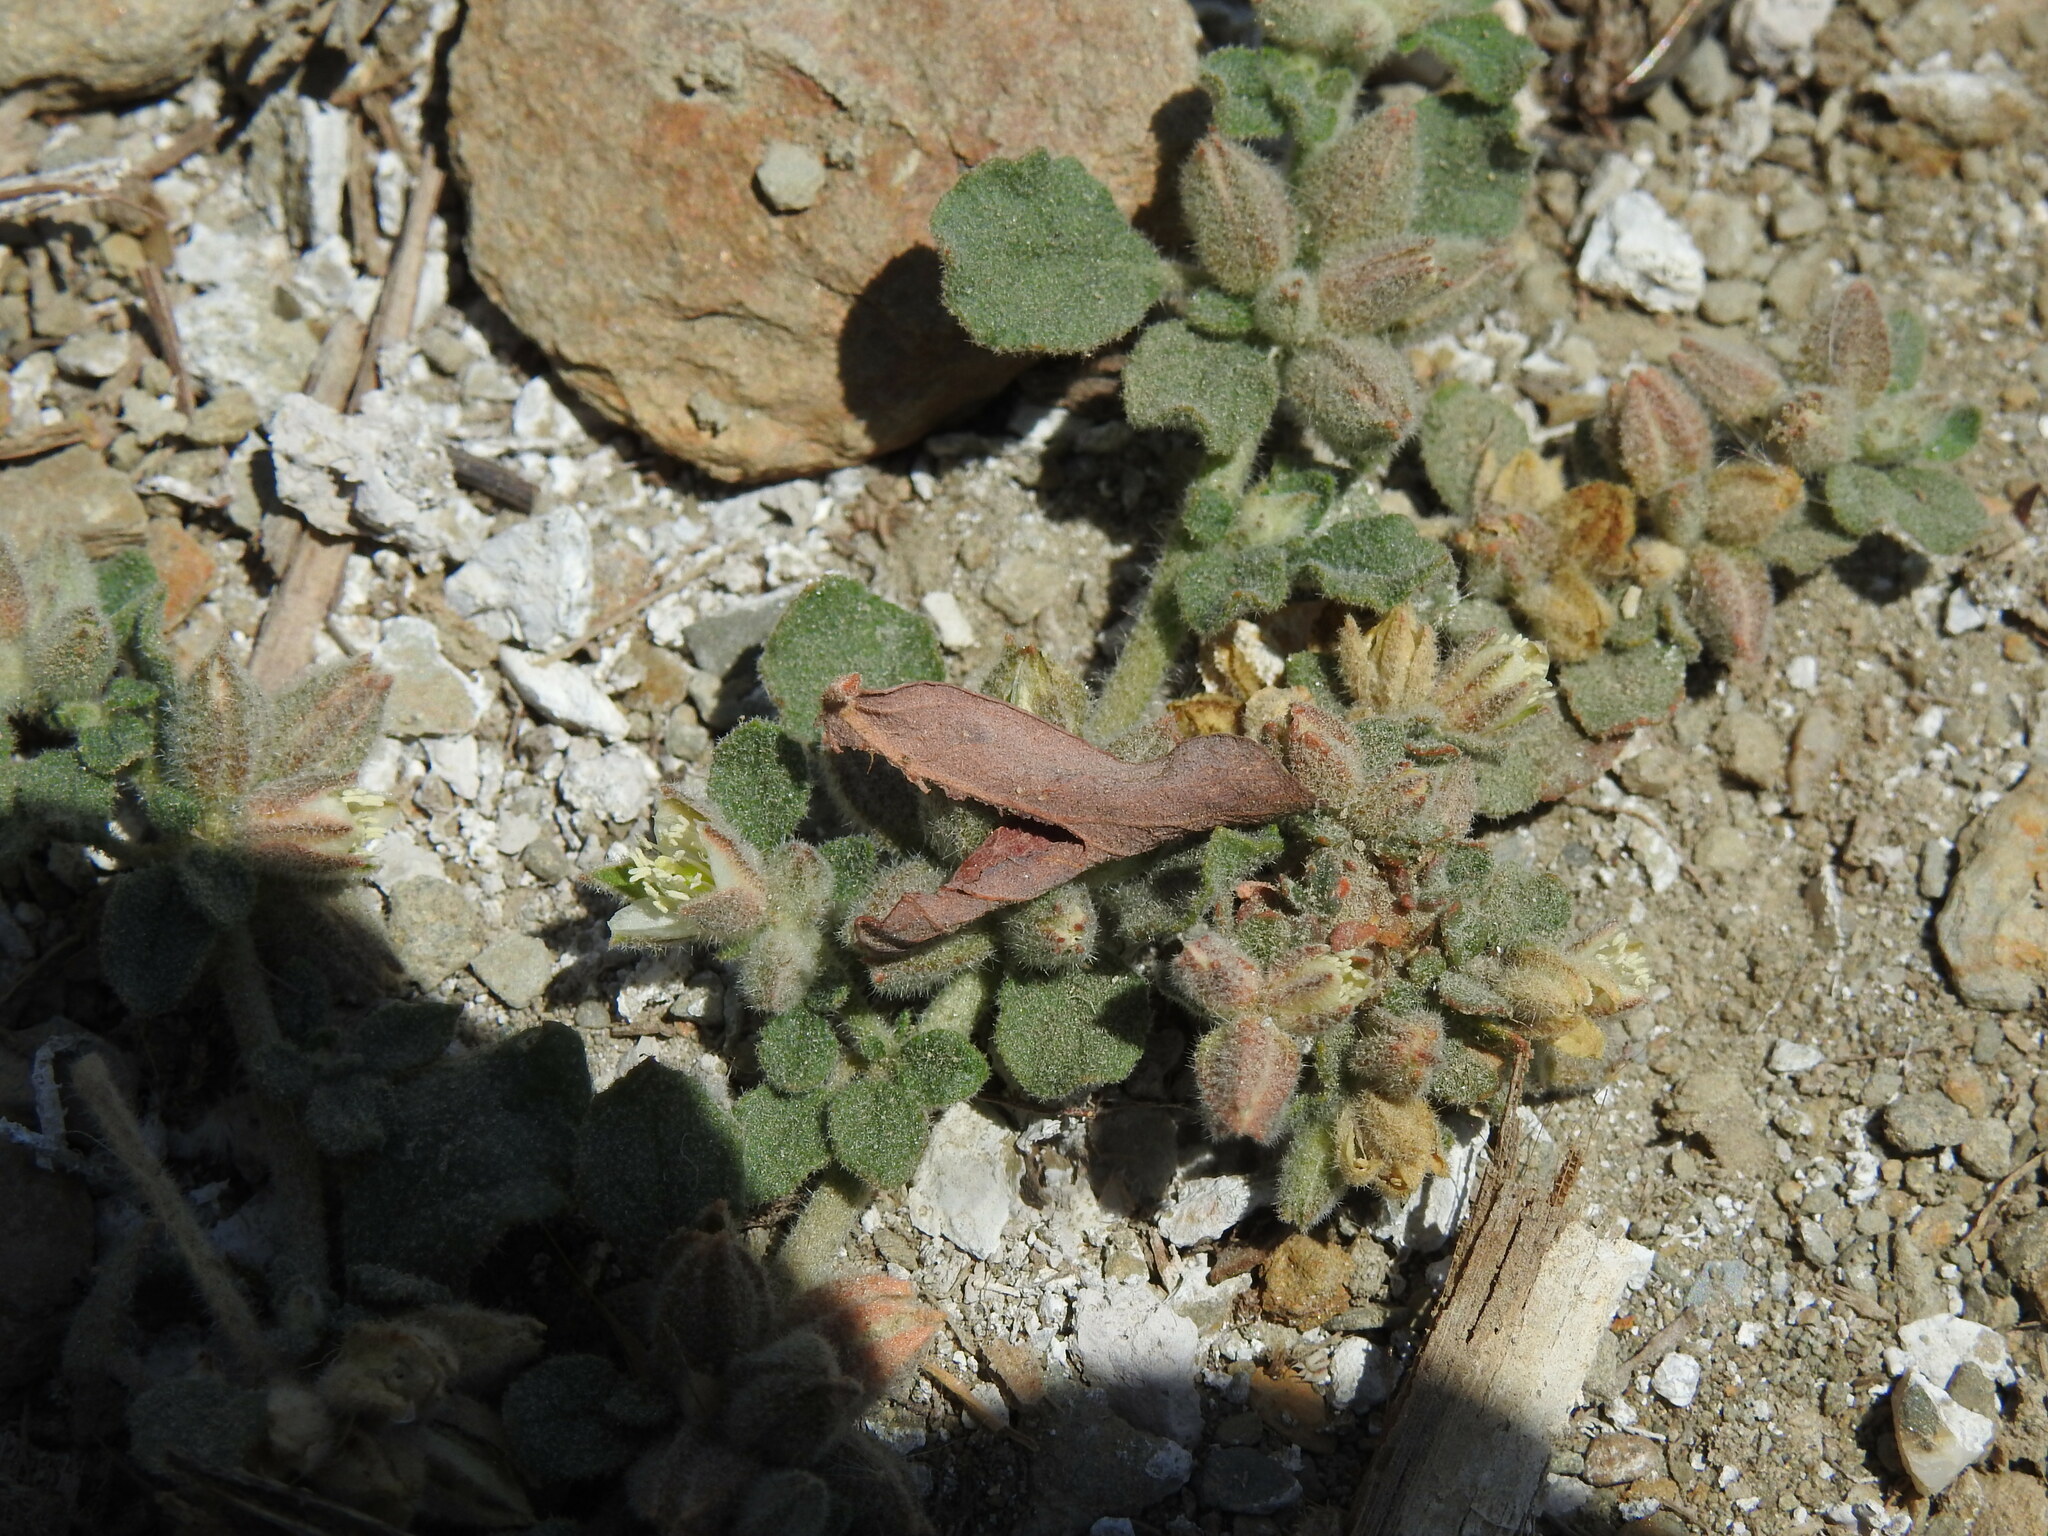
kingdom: Plantae
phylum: Tracheophyta
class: Magnoliopsida
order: Caryophyllales
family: Molluginaceae
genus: Glinus
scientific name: Glinus lotoides
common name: Lotus sweetjuice
